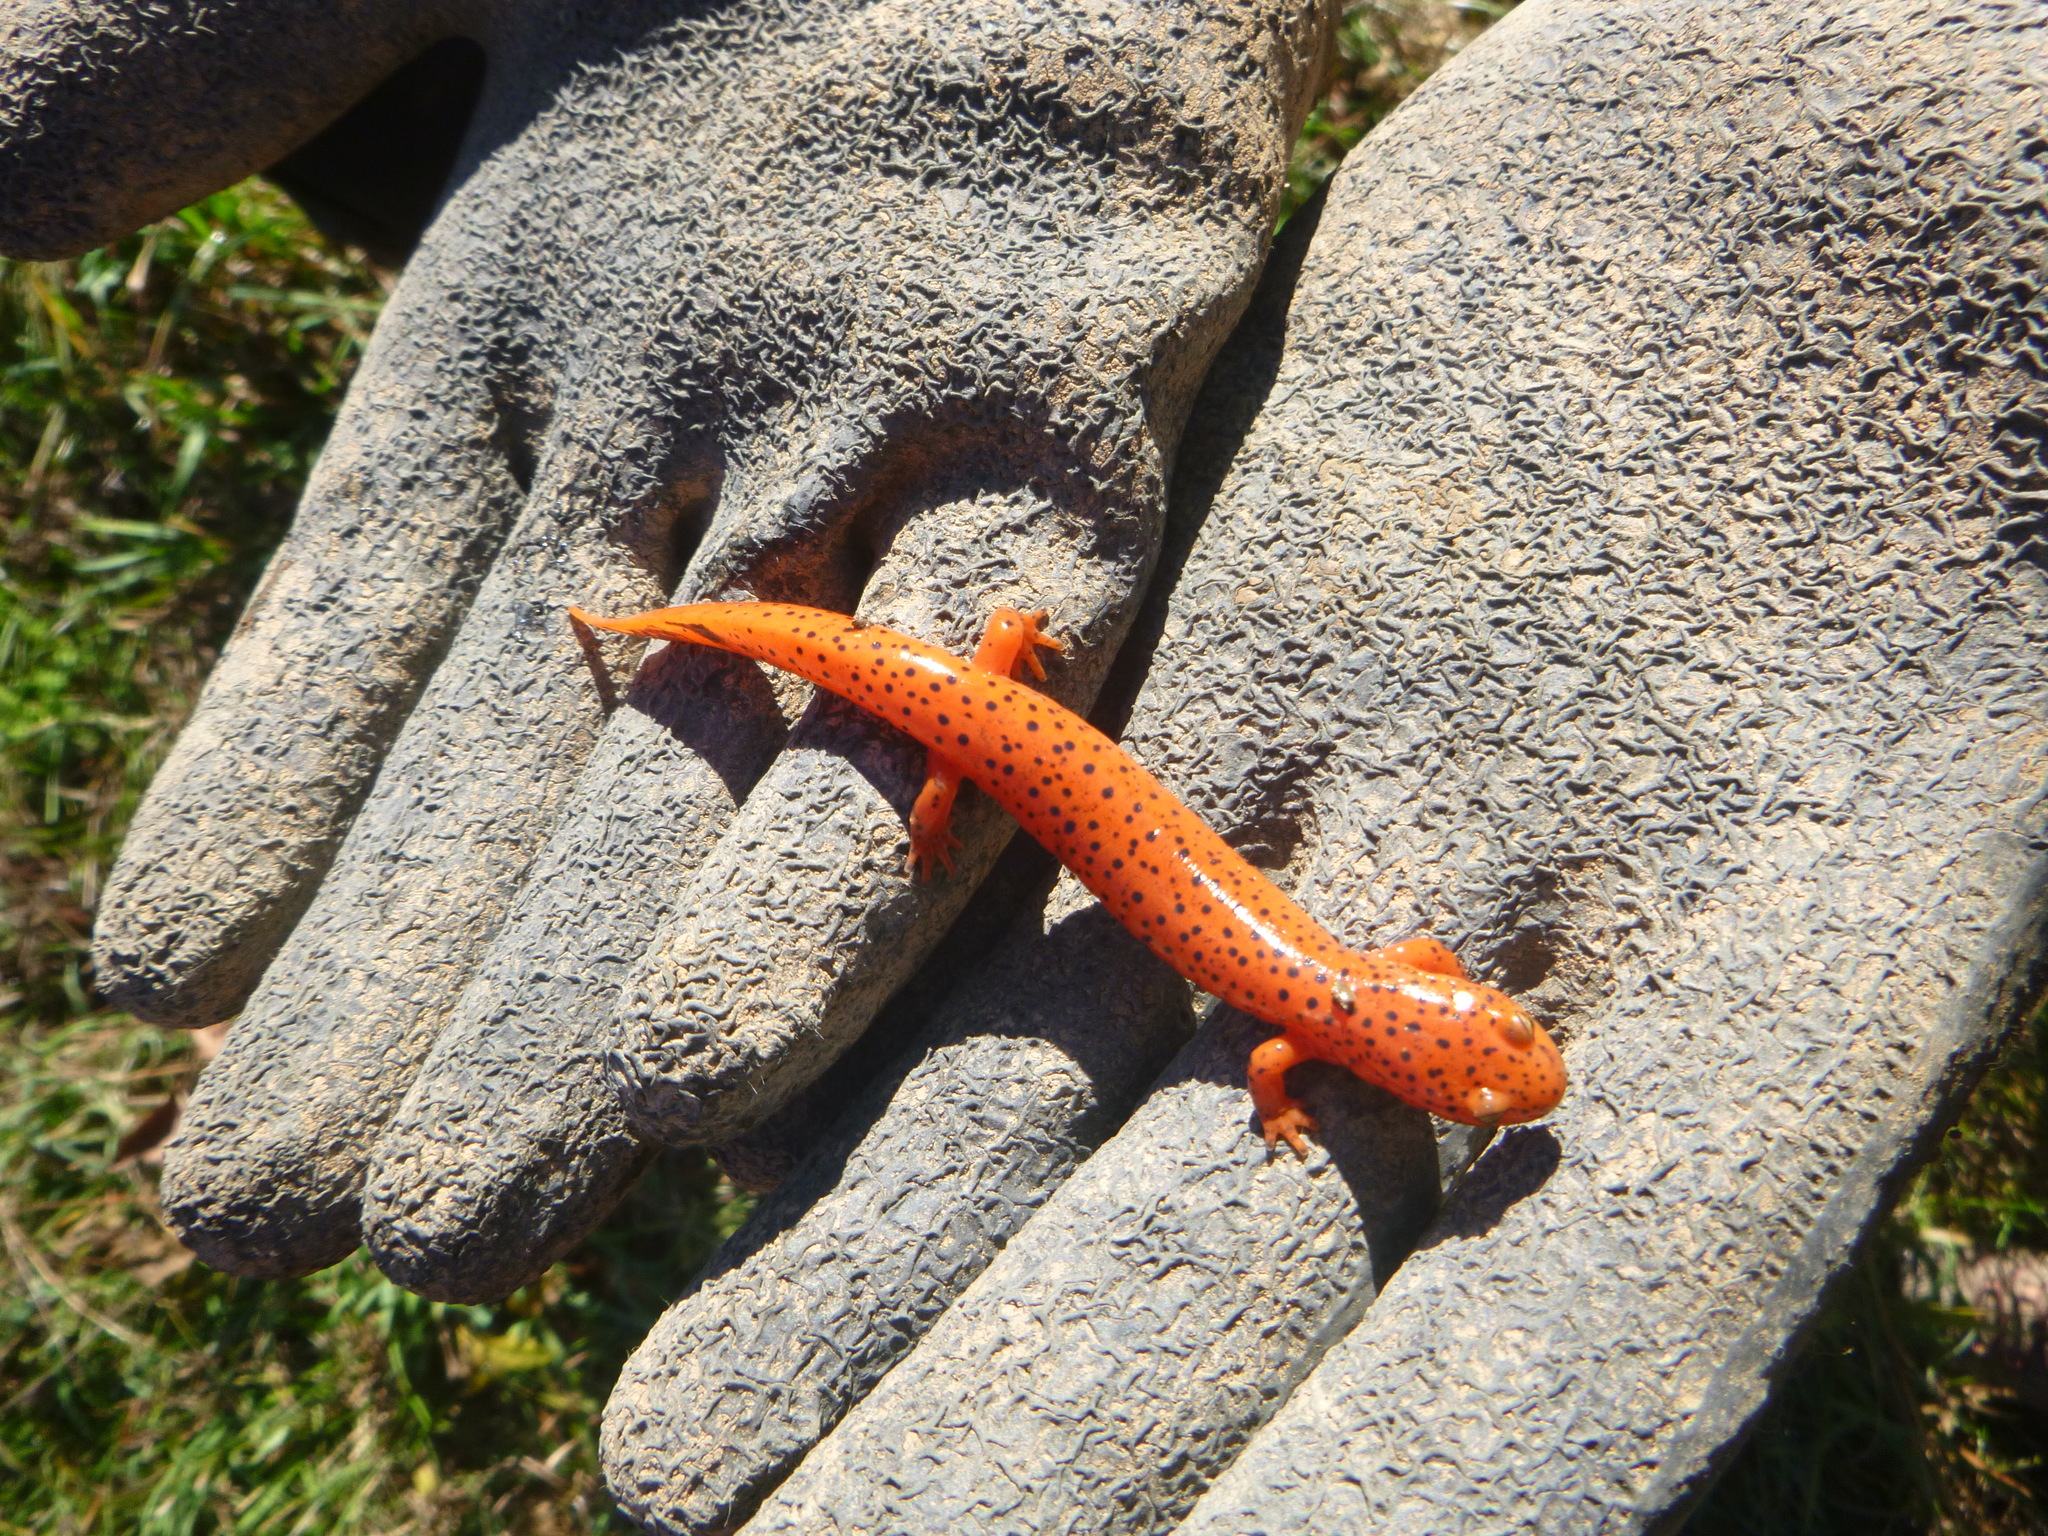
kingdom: Animalia
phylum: Chordata
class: Amphibia
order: Caudata
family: Plethodontidae
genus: Pseudotriton
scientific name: Pseudotriton ruber
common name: Red salamander
